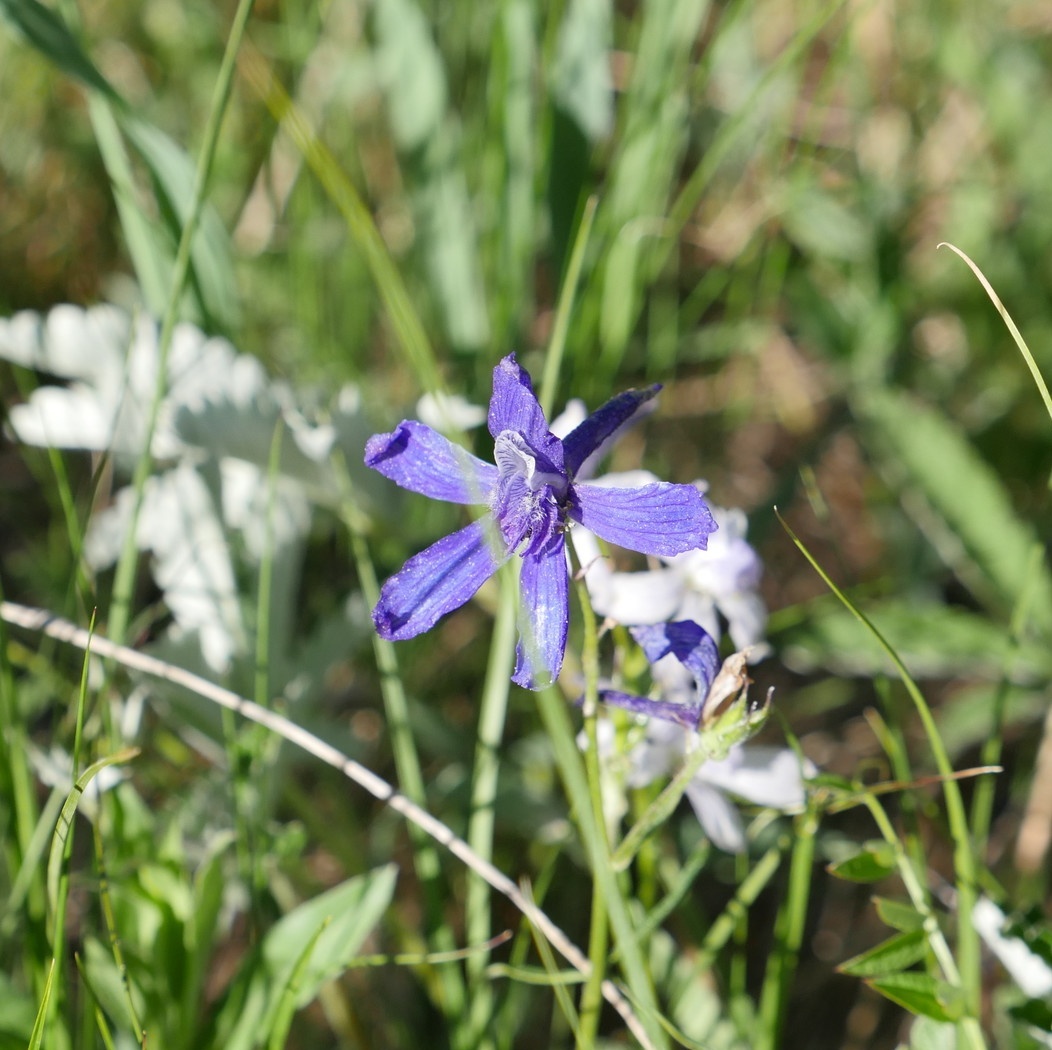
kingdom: Plantae
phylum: Tracheophyta
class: Magnoliopsida
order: Ranunculales
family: Ranunculaceae
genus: Delphinium
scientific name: Delphinium nuttallianum
